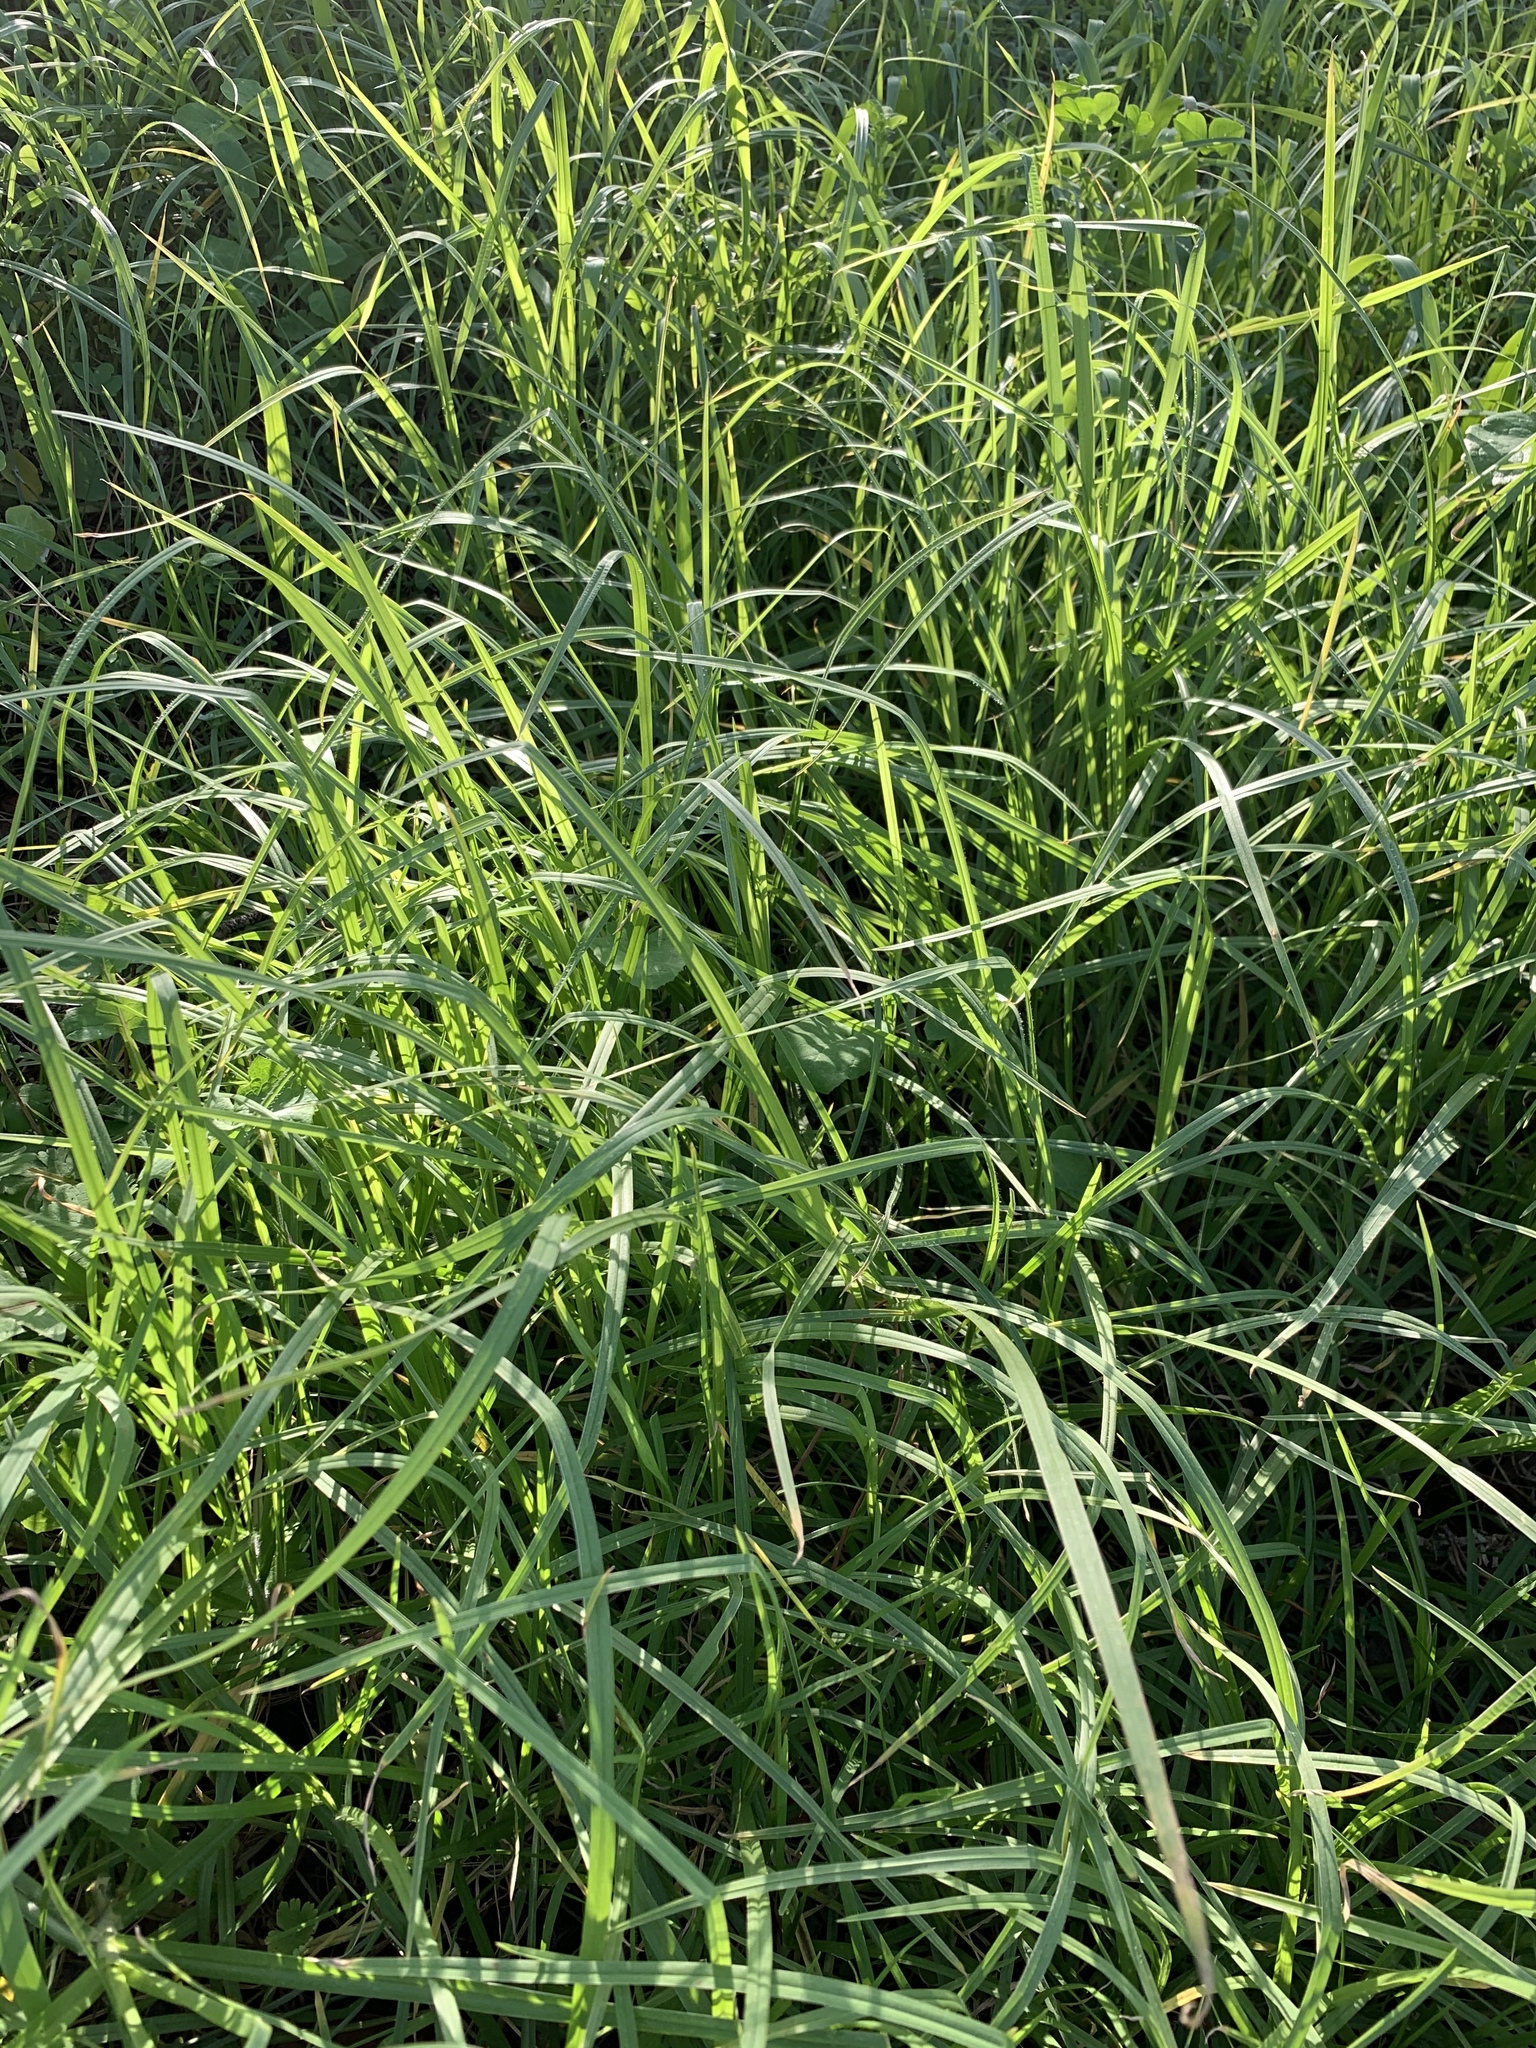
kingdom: Plantae
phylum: Tracheophyta
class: Liliopsida
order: Poales
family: Poaceae
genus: Cenchrus
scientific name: Cenchrus clandestinus
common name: Kikuyugrass
